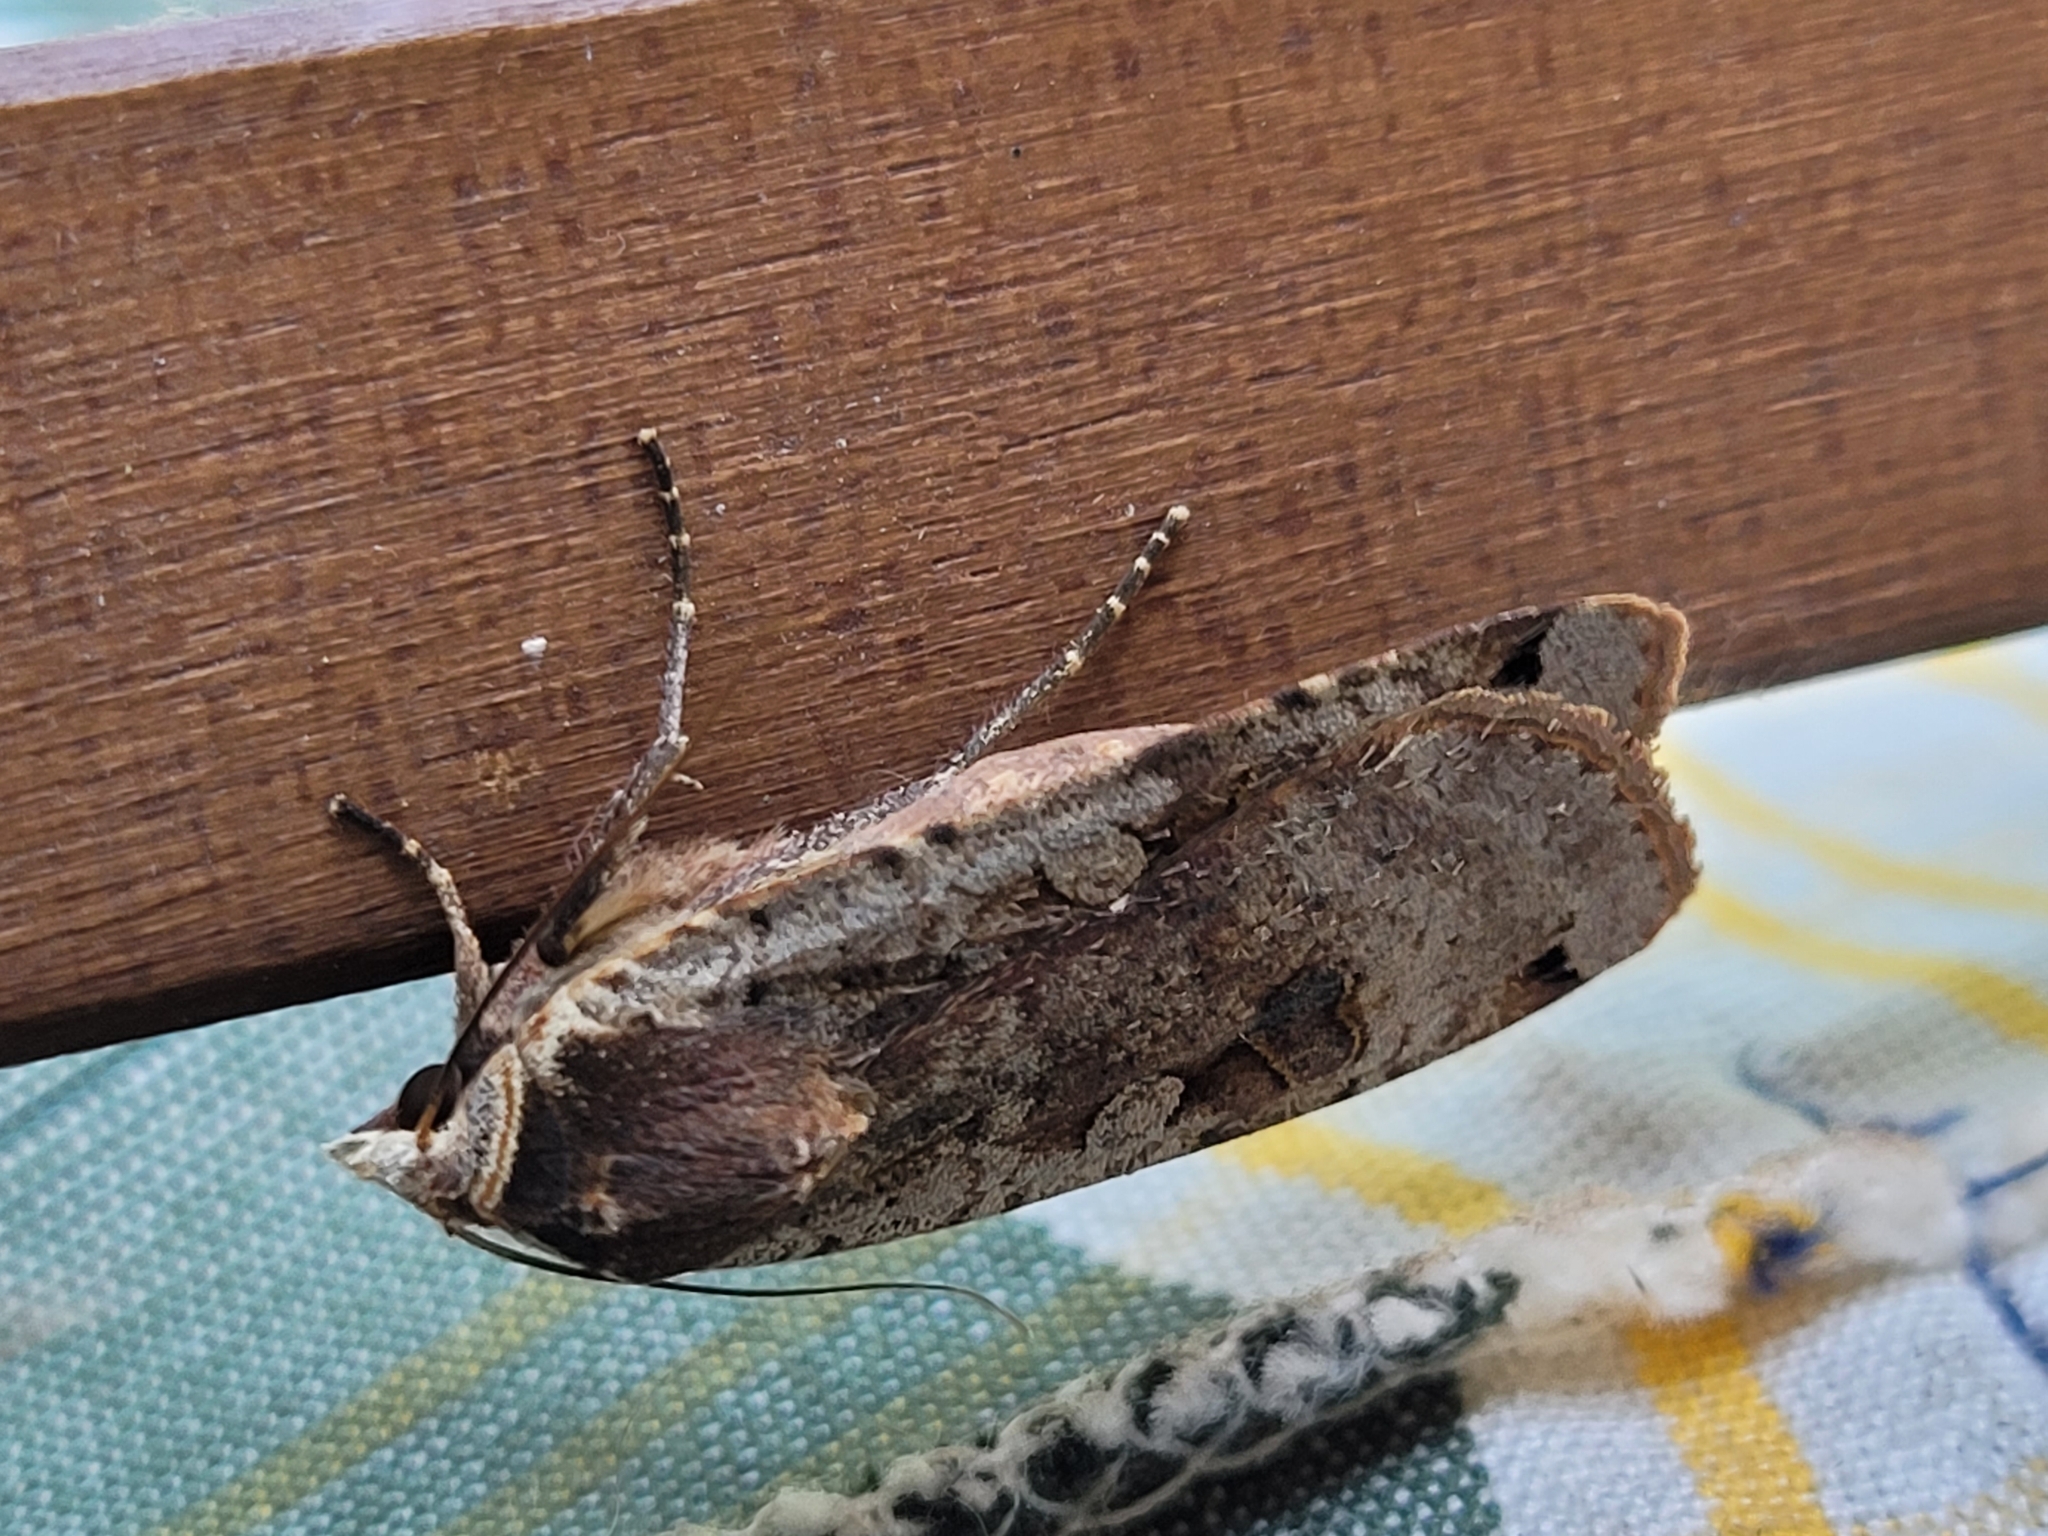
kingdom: Animalia
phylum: Arthropoda
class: Insecta
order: Lepidoptera
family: Noctuidae
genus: Noctua
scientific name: Noctua pronuba
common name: Large yellow underwing
